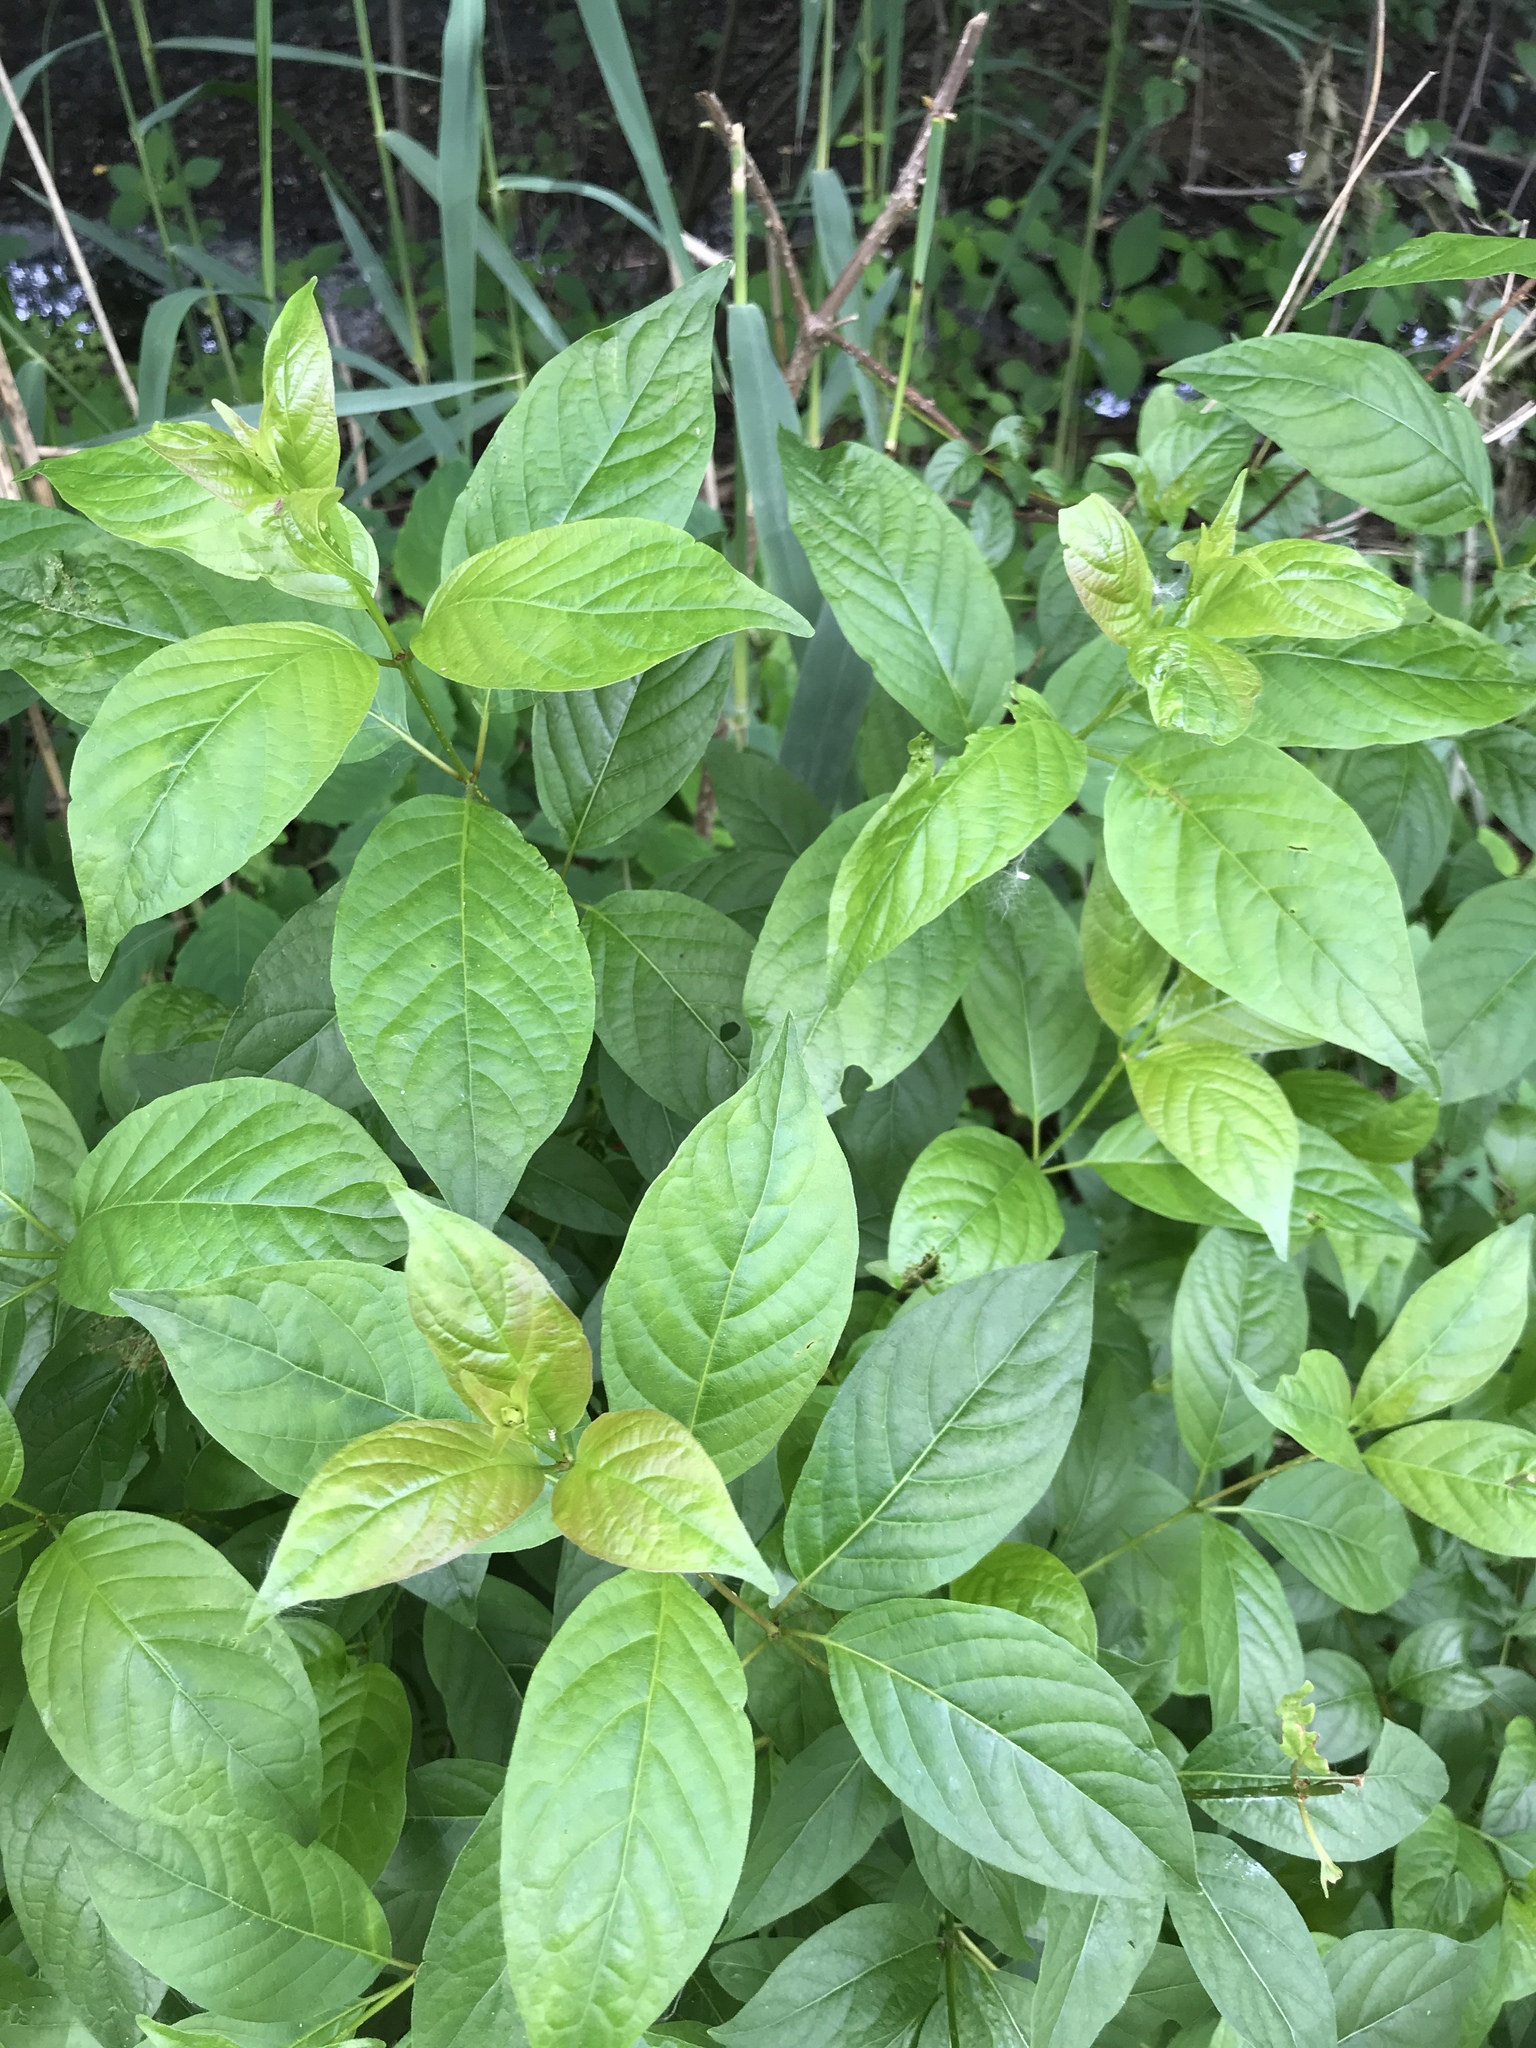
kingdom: Plantae
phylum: Tracheophyta
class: Magnoliopsida
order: Gentianales
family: Rubiaceae
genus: Cephalanthus
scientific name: Cephalanthus occidentalis
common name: Button-willow
